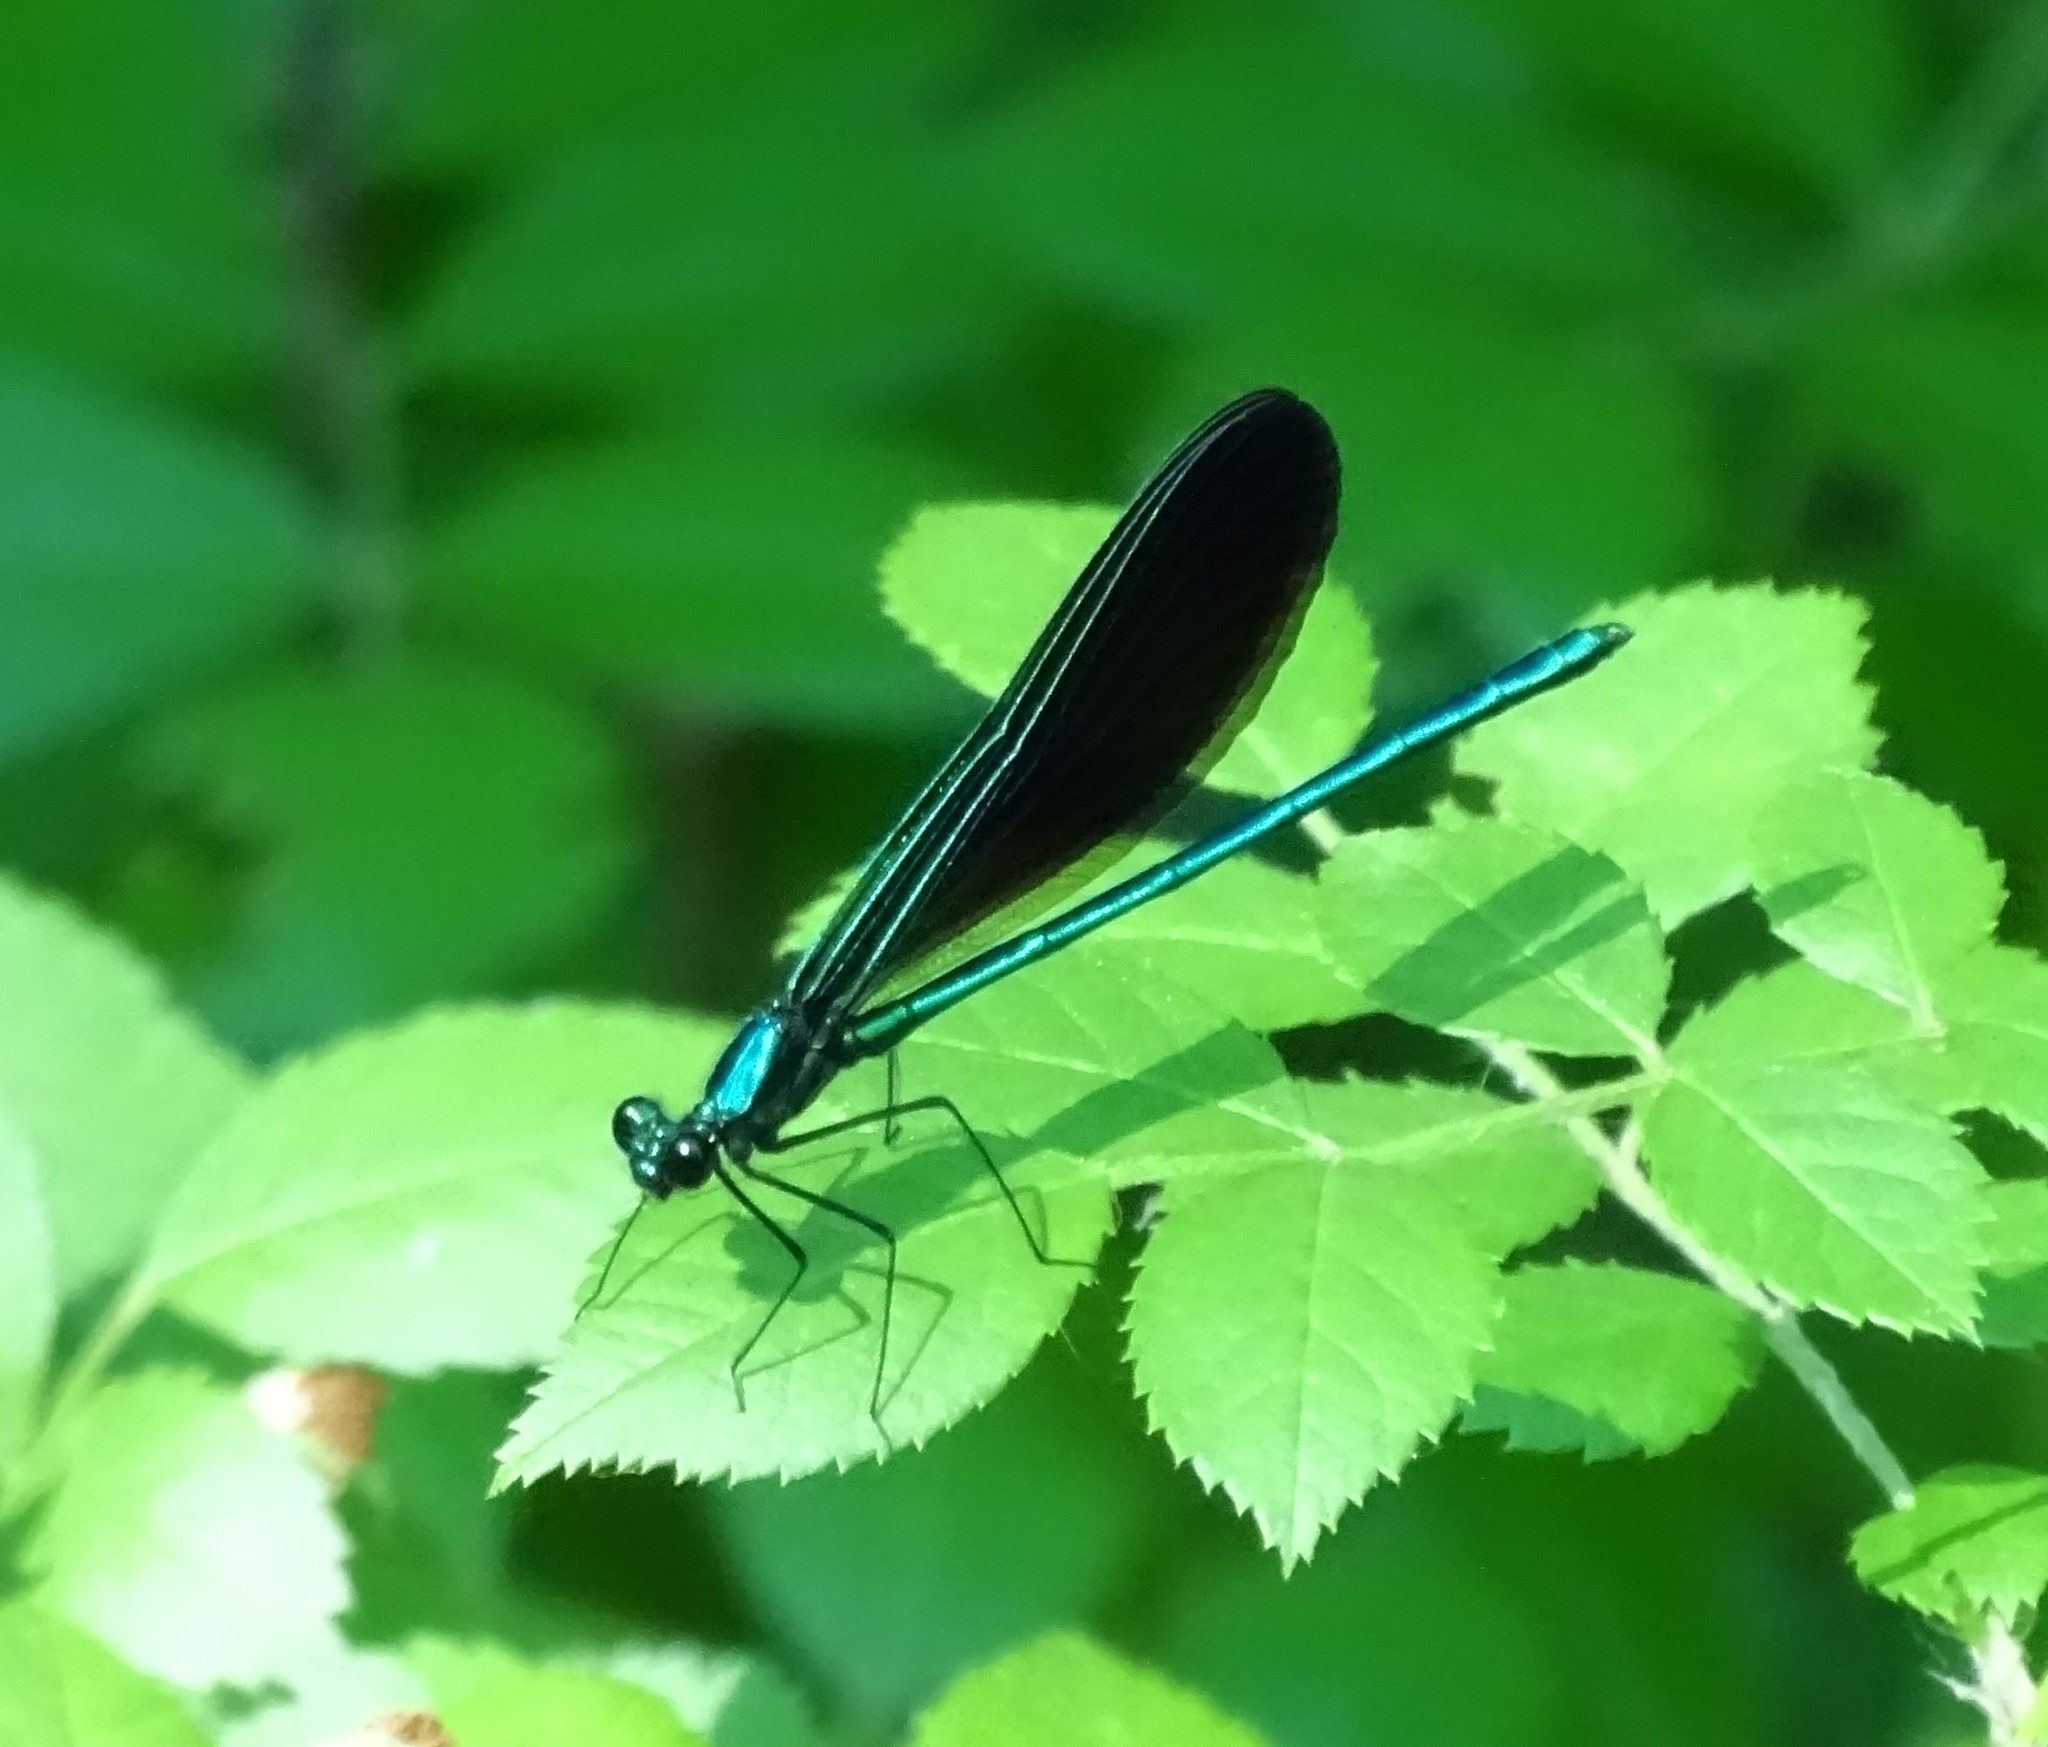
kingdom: Animalia
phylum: Arthropoda
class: Insecta
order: Odonata
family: Calopterygidae
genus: Calopteryx
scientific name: Calopteryx maculata
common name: Ebony jewelwing
